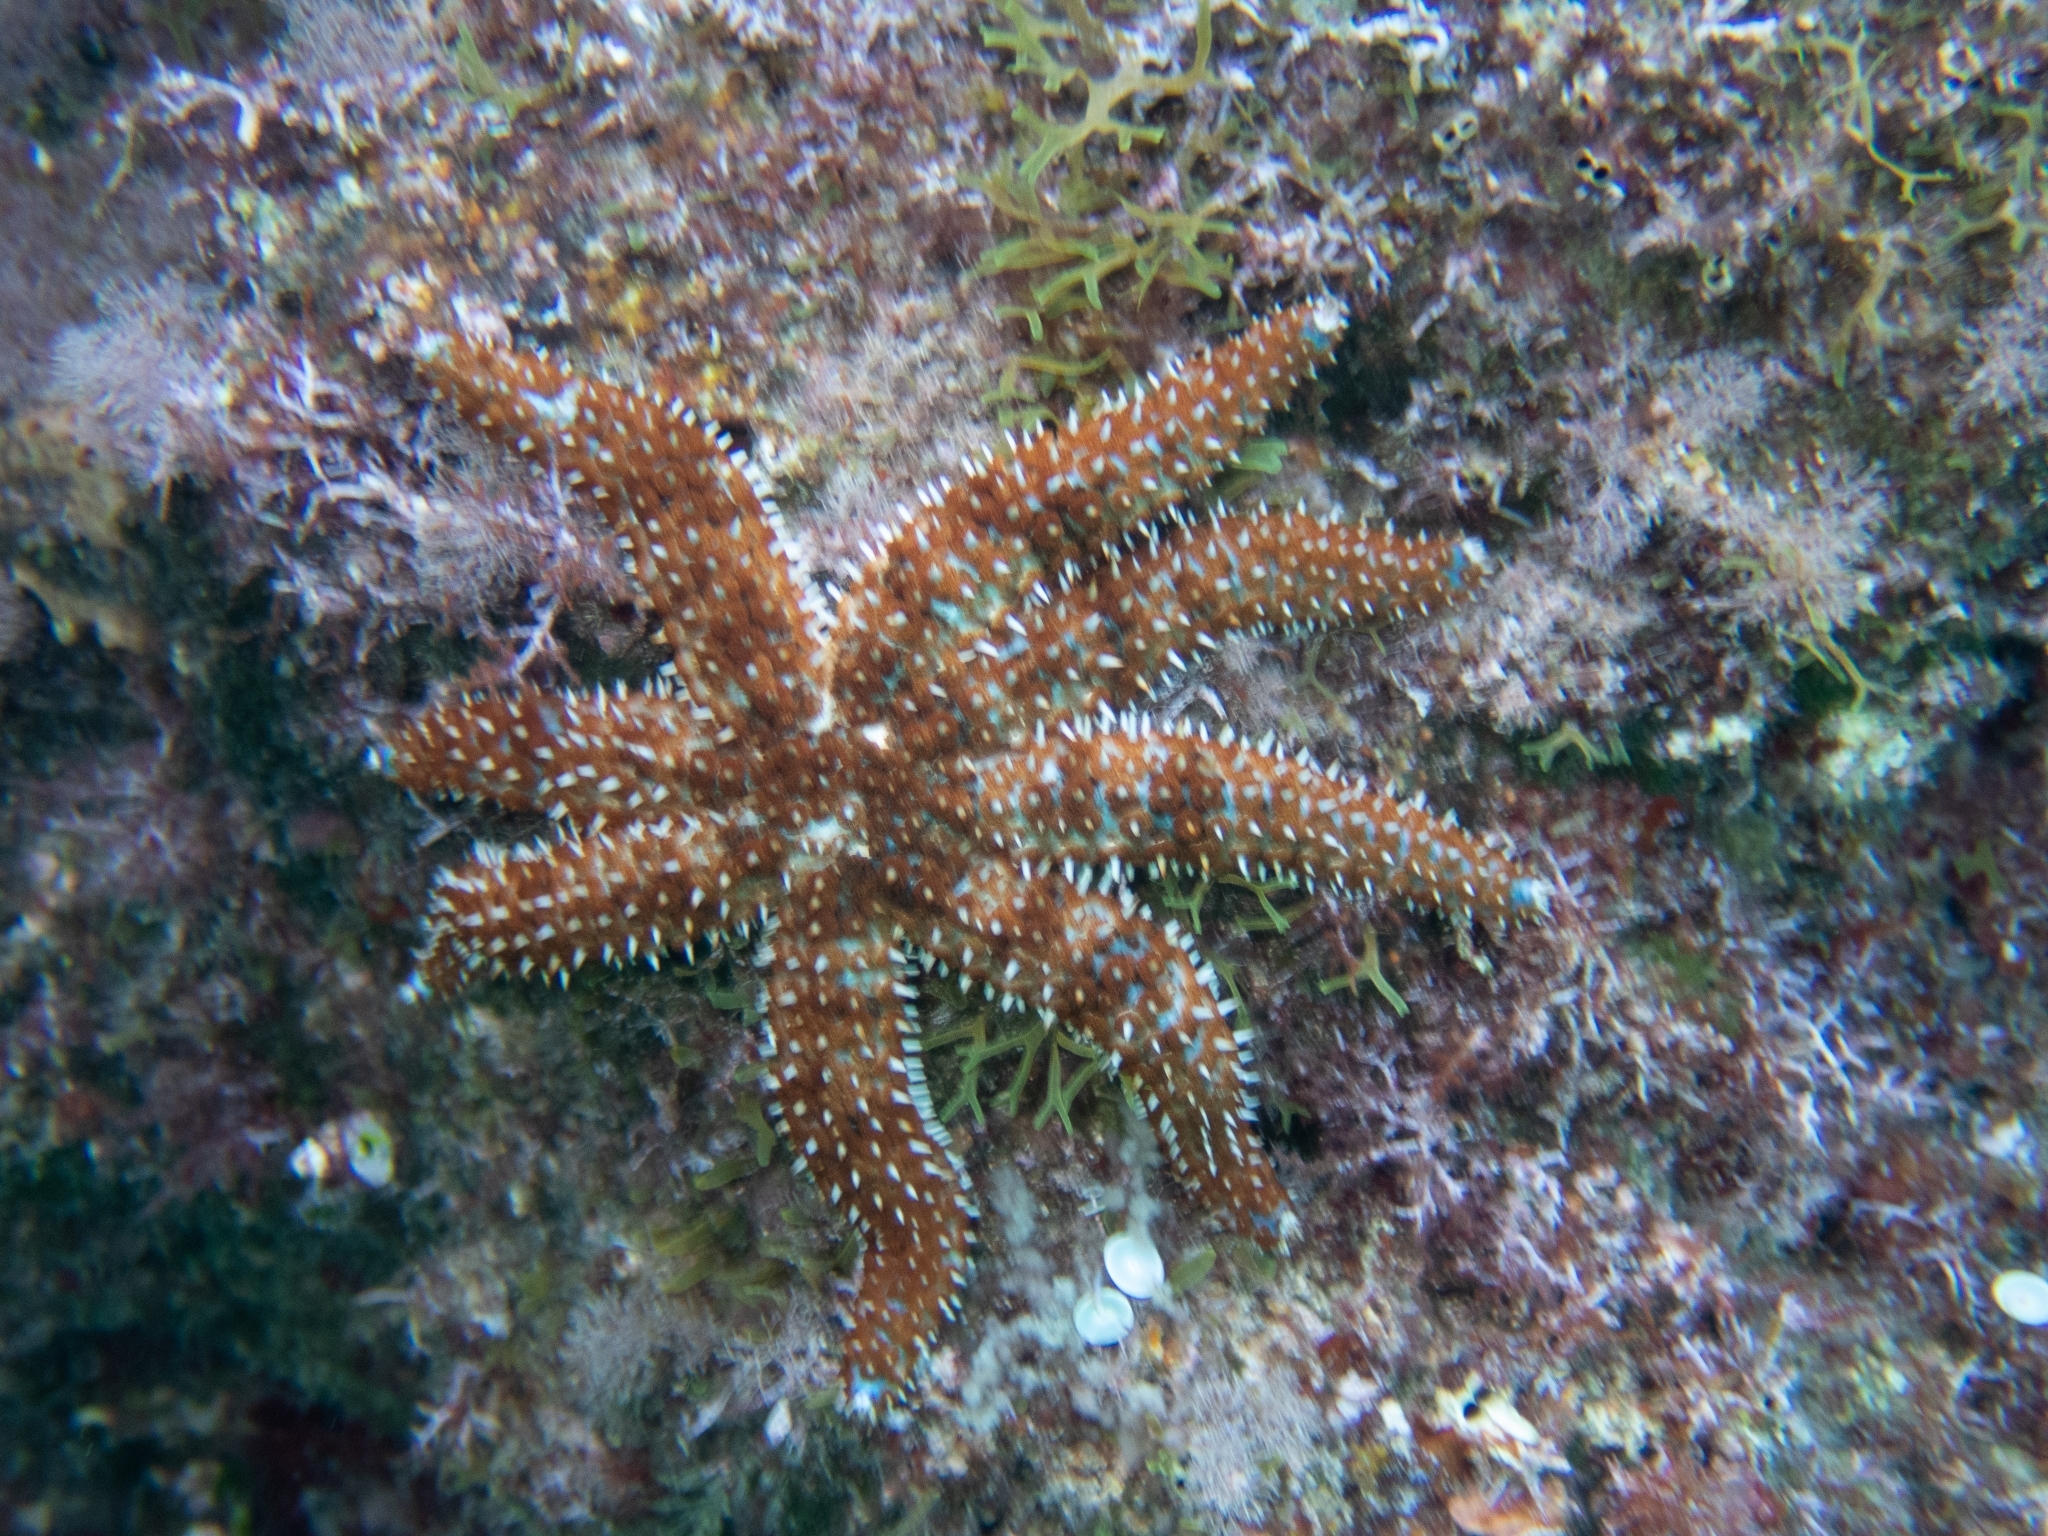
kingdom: Animalia
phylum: Echinodermata
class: Asteroidea
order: Forcipulatida
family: Asteriidae
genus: Coscinasterias
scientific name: Coscinasterias tenuispina
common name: Blue spiny starfish
